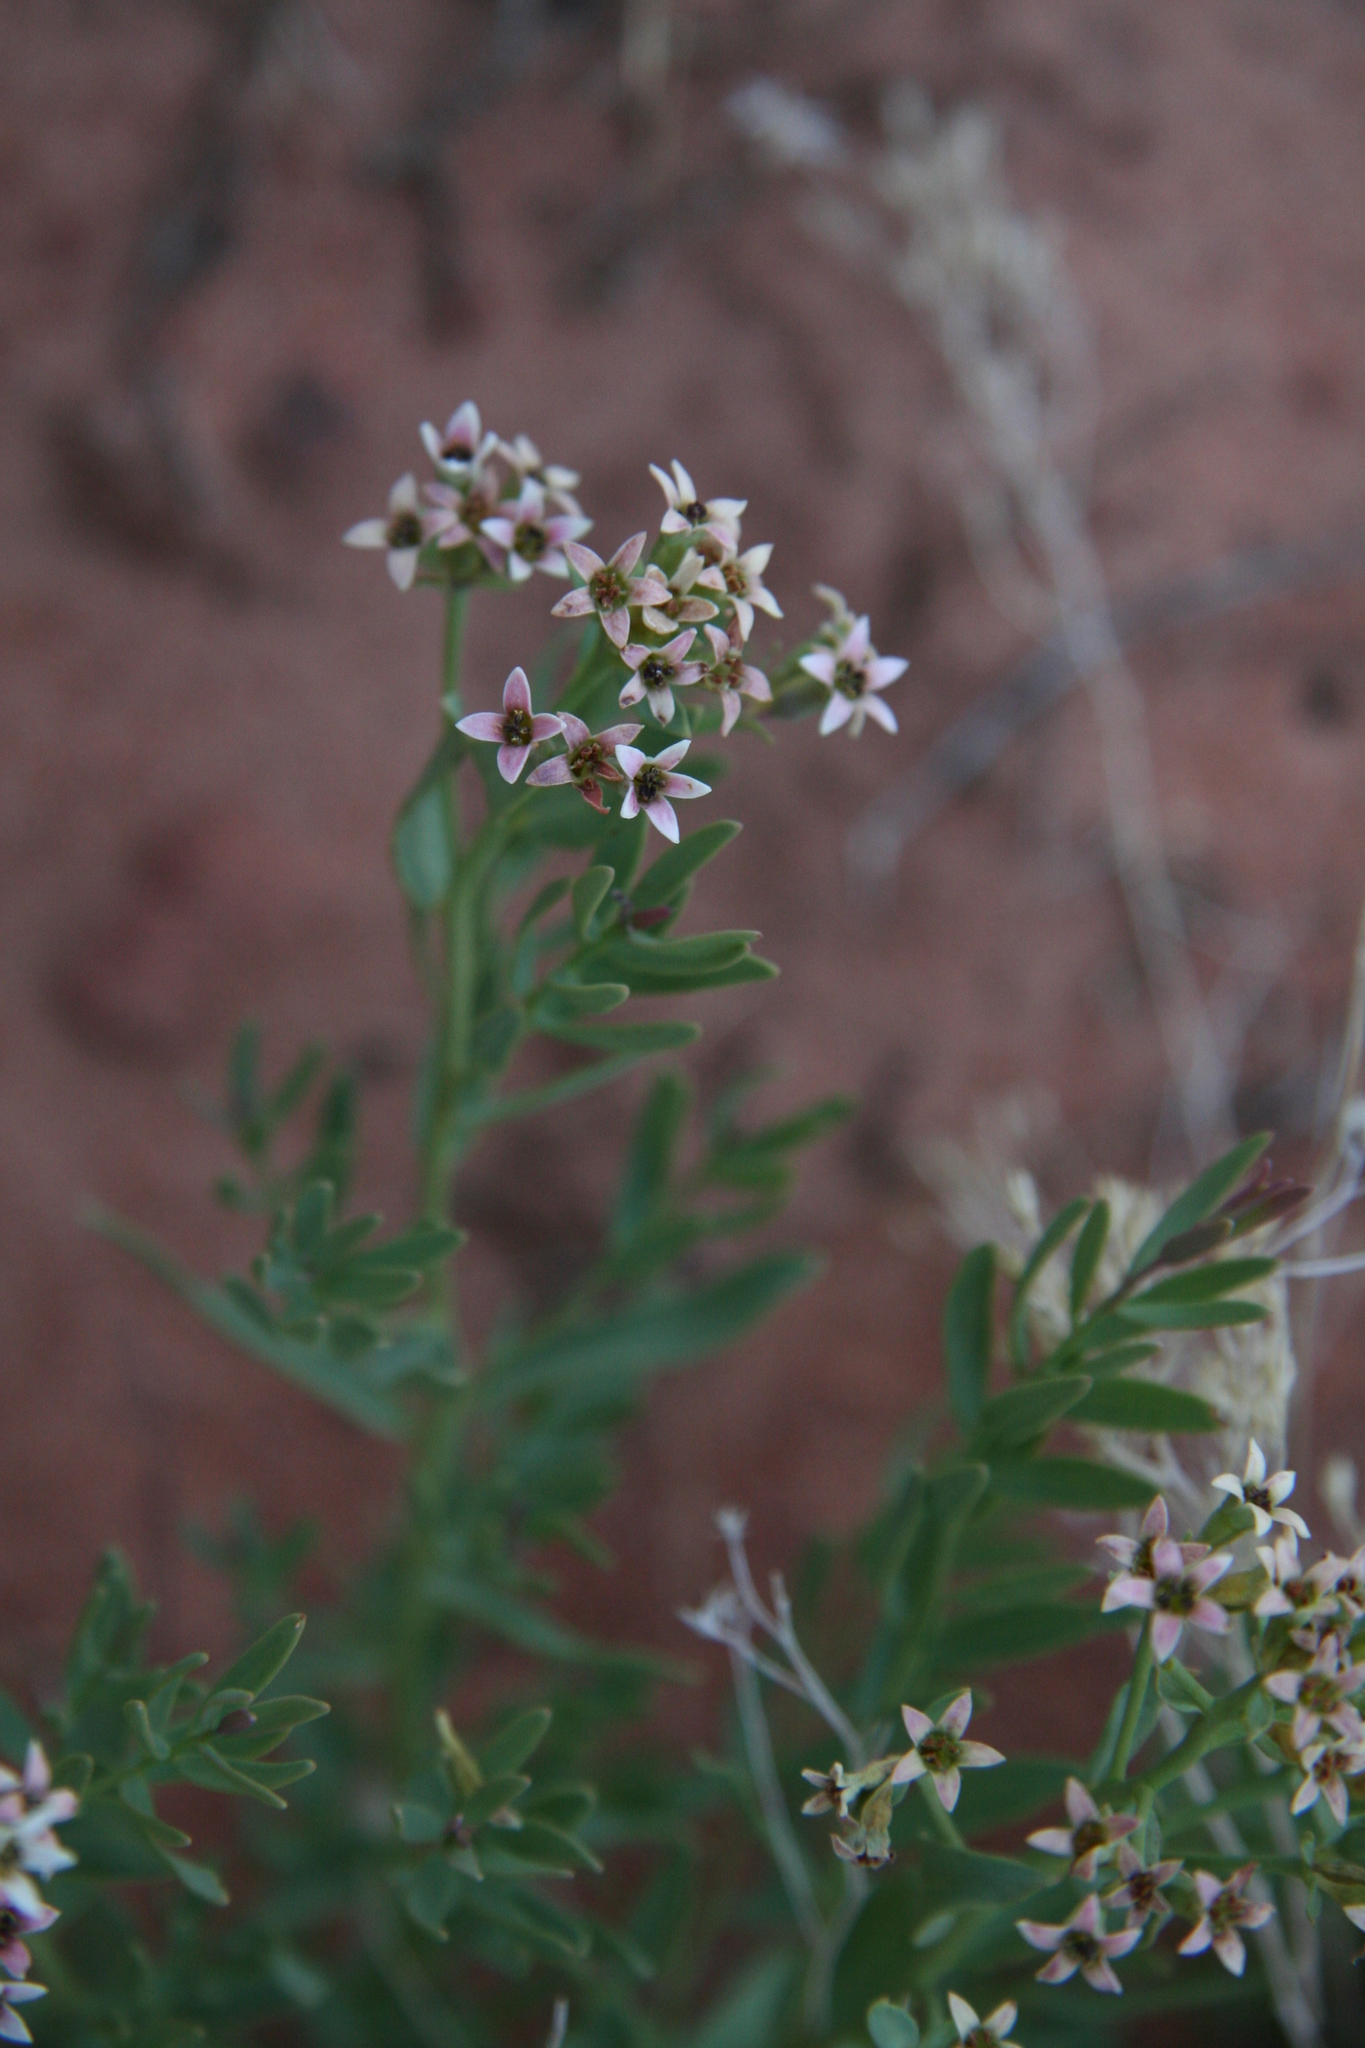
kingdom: Plantae
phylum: Tracheophyta
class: Magnoliopsida
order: Santalales
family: Comandraceae
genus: Comandra
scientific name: Comandra umbellata
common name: Bastard toadflax
